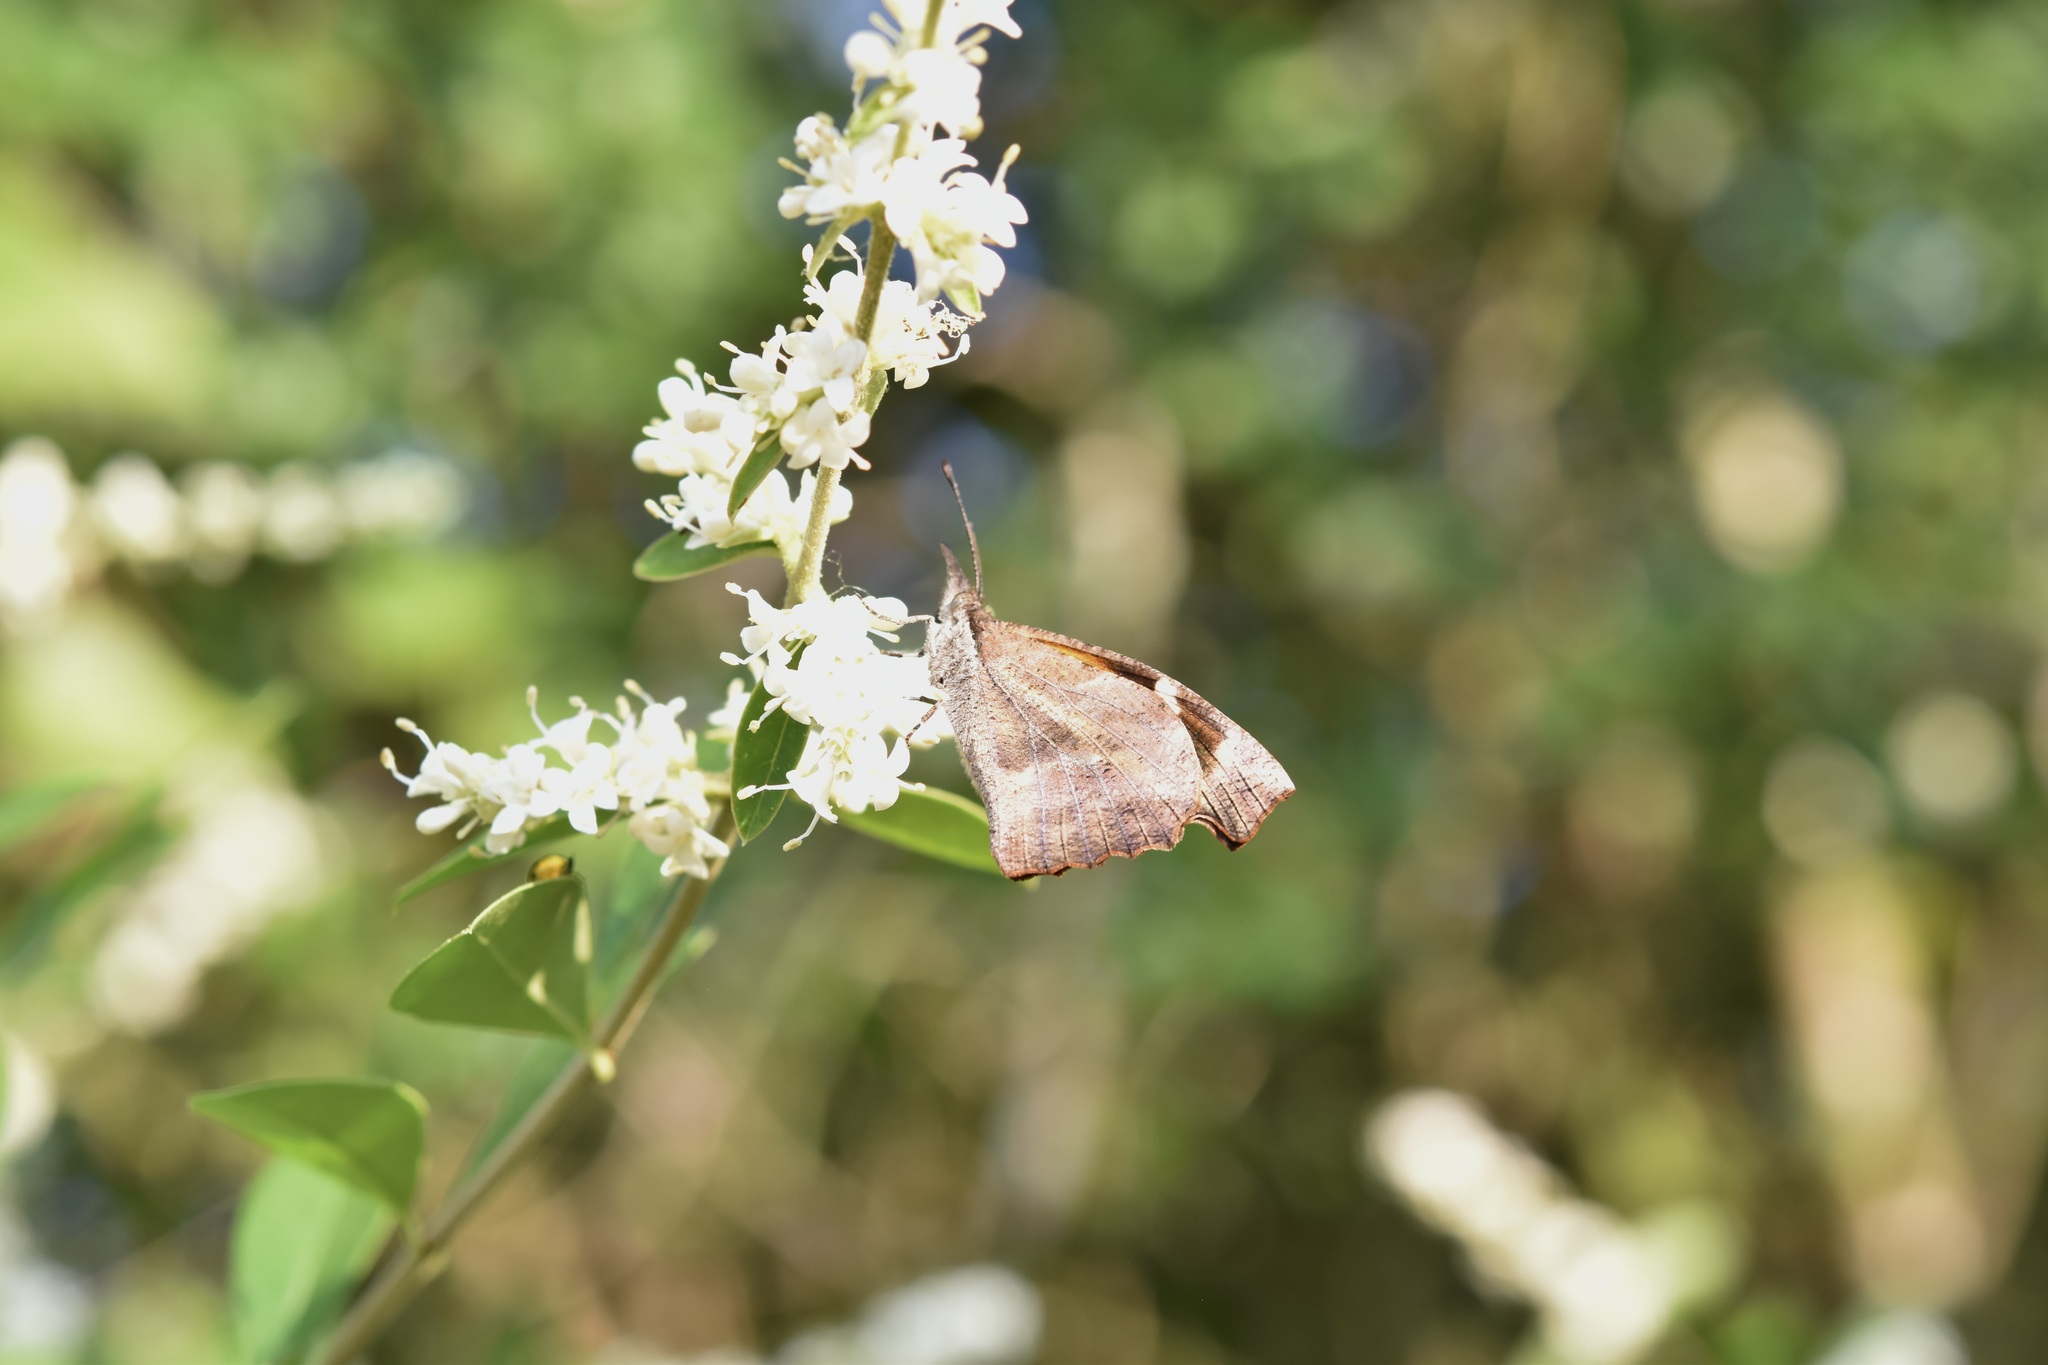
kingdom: Animalia
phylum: Arthropoda
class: Insecta
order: Lepidoptera
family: Nymphalidae
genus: Libytheana
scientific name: Libytheana carinenta
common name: American snout
